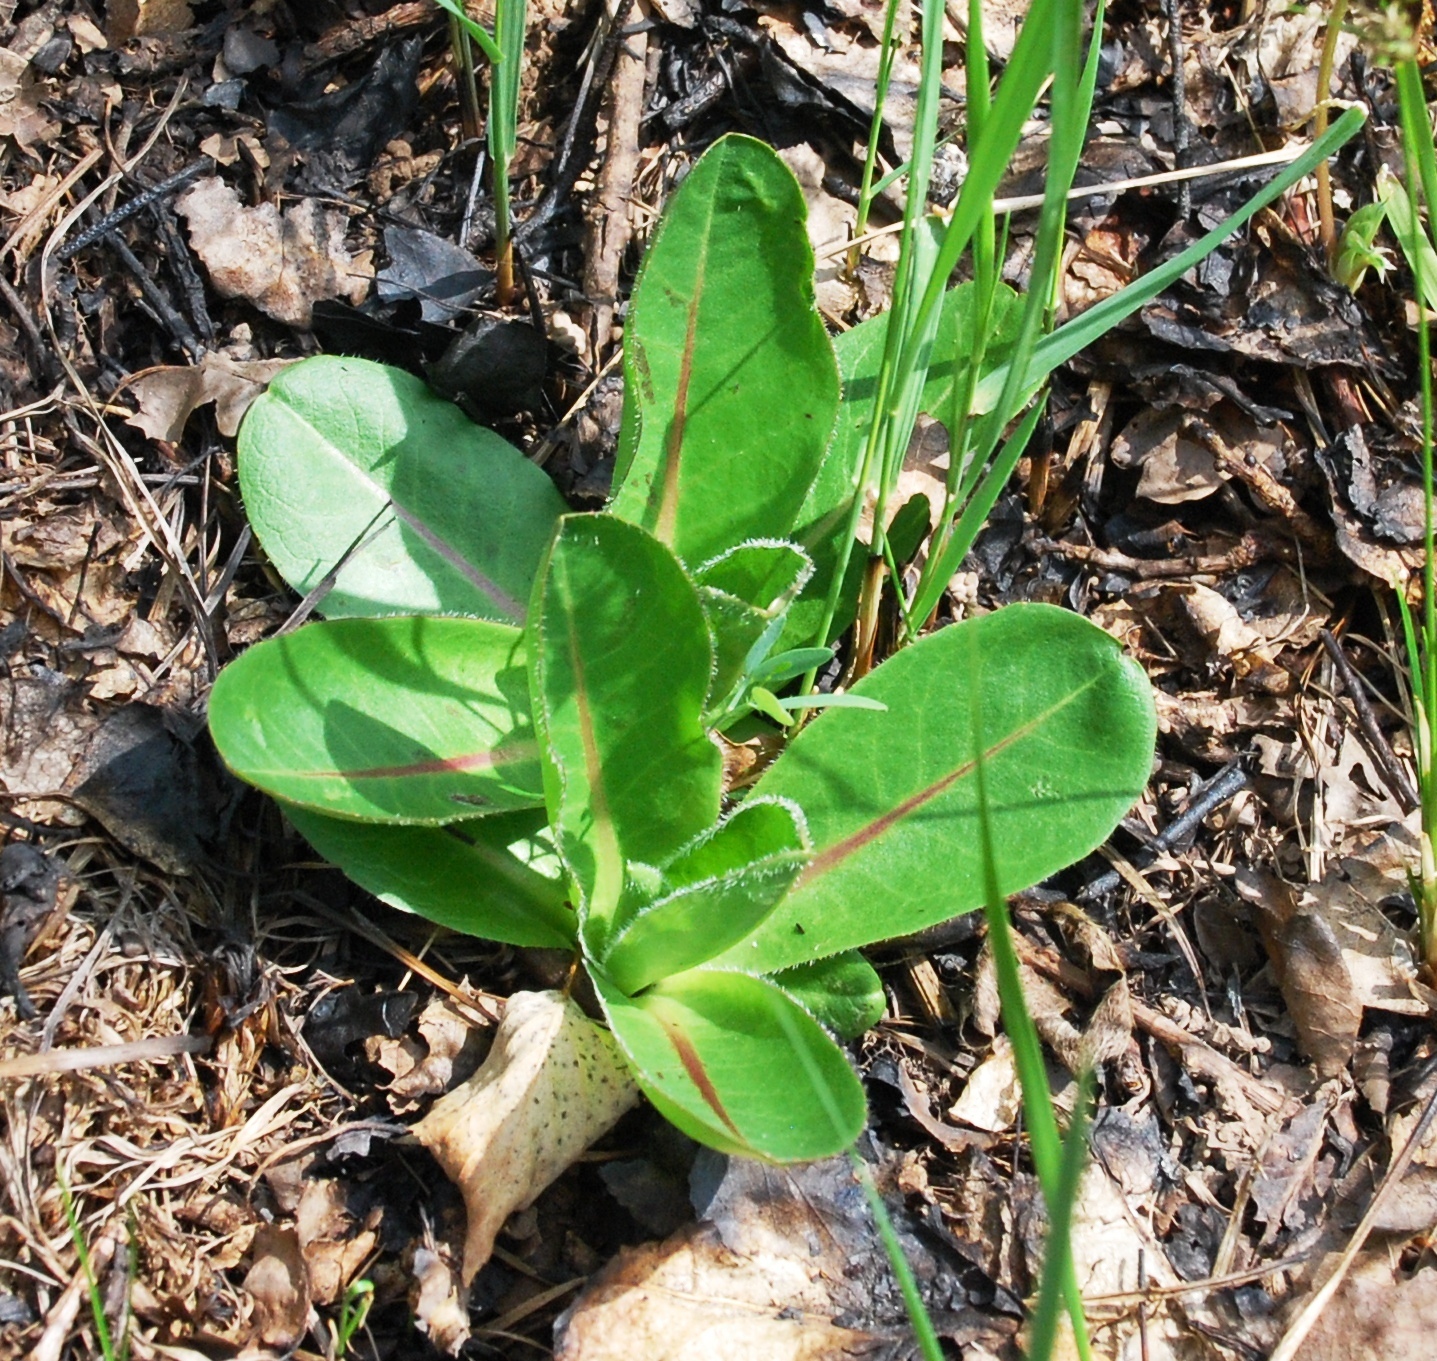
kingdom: Plantae
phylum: Tracheophyta
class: Magnoliopsida
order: Asterales
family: Asteraceae
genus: Trommsdorffia
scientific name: Trommsdorffia maculata
